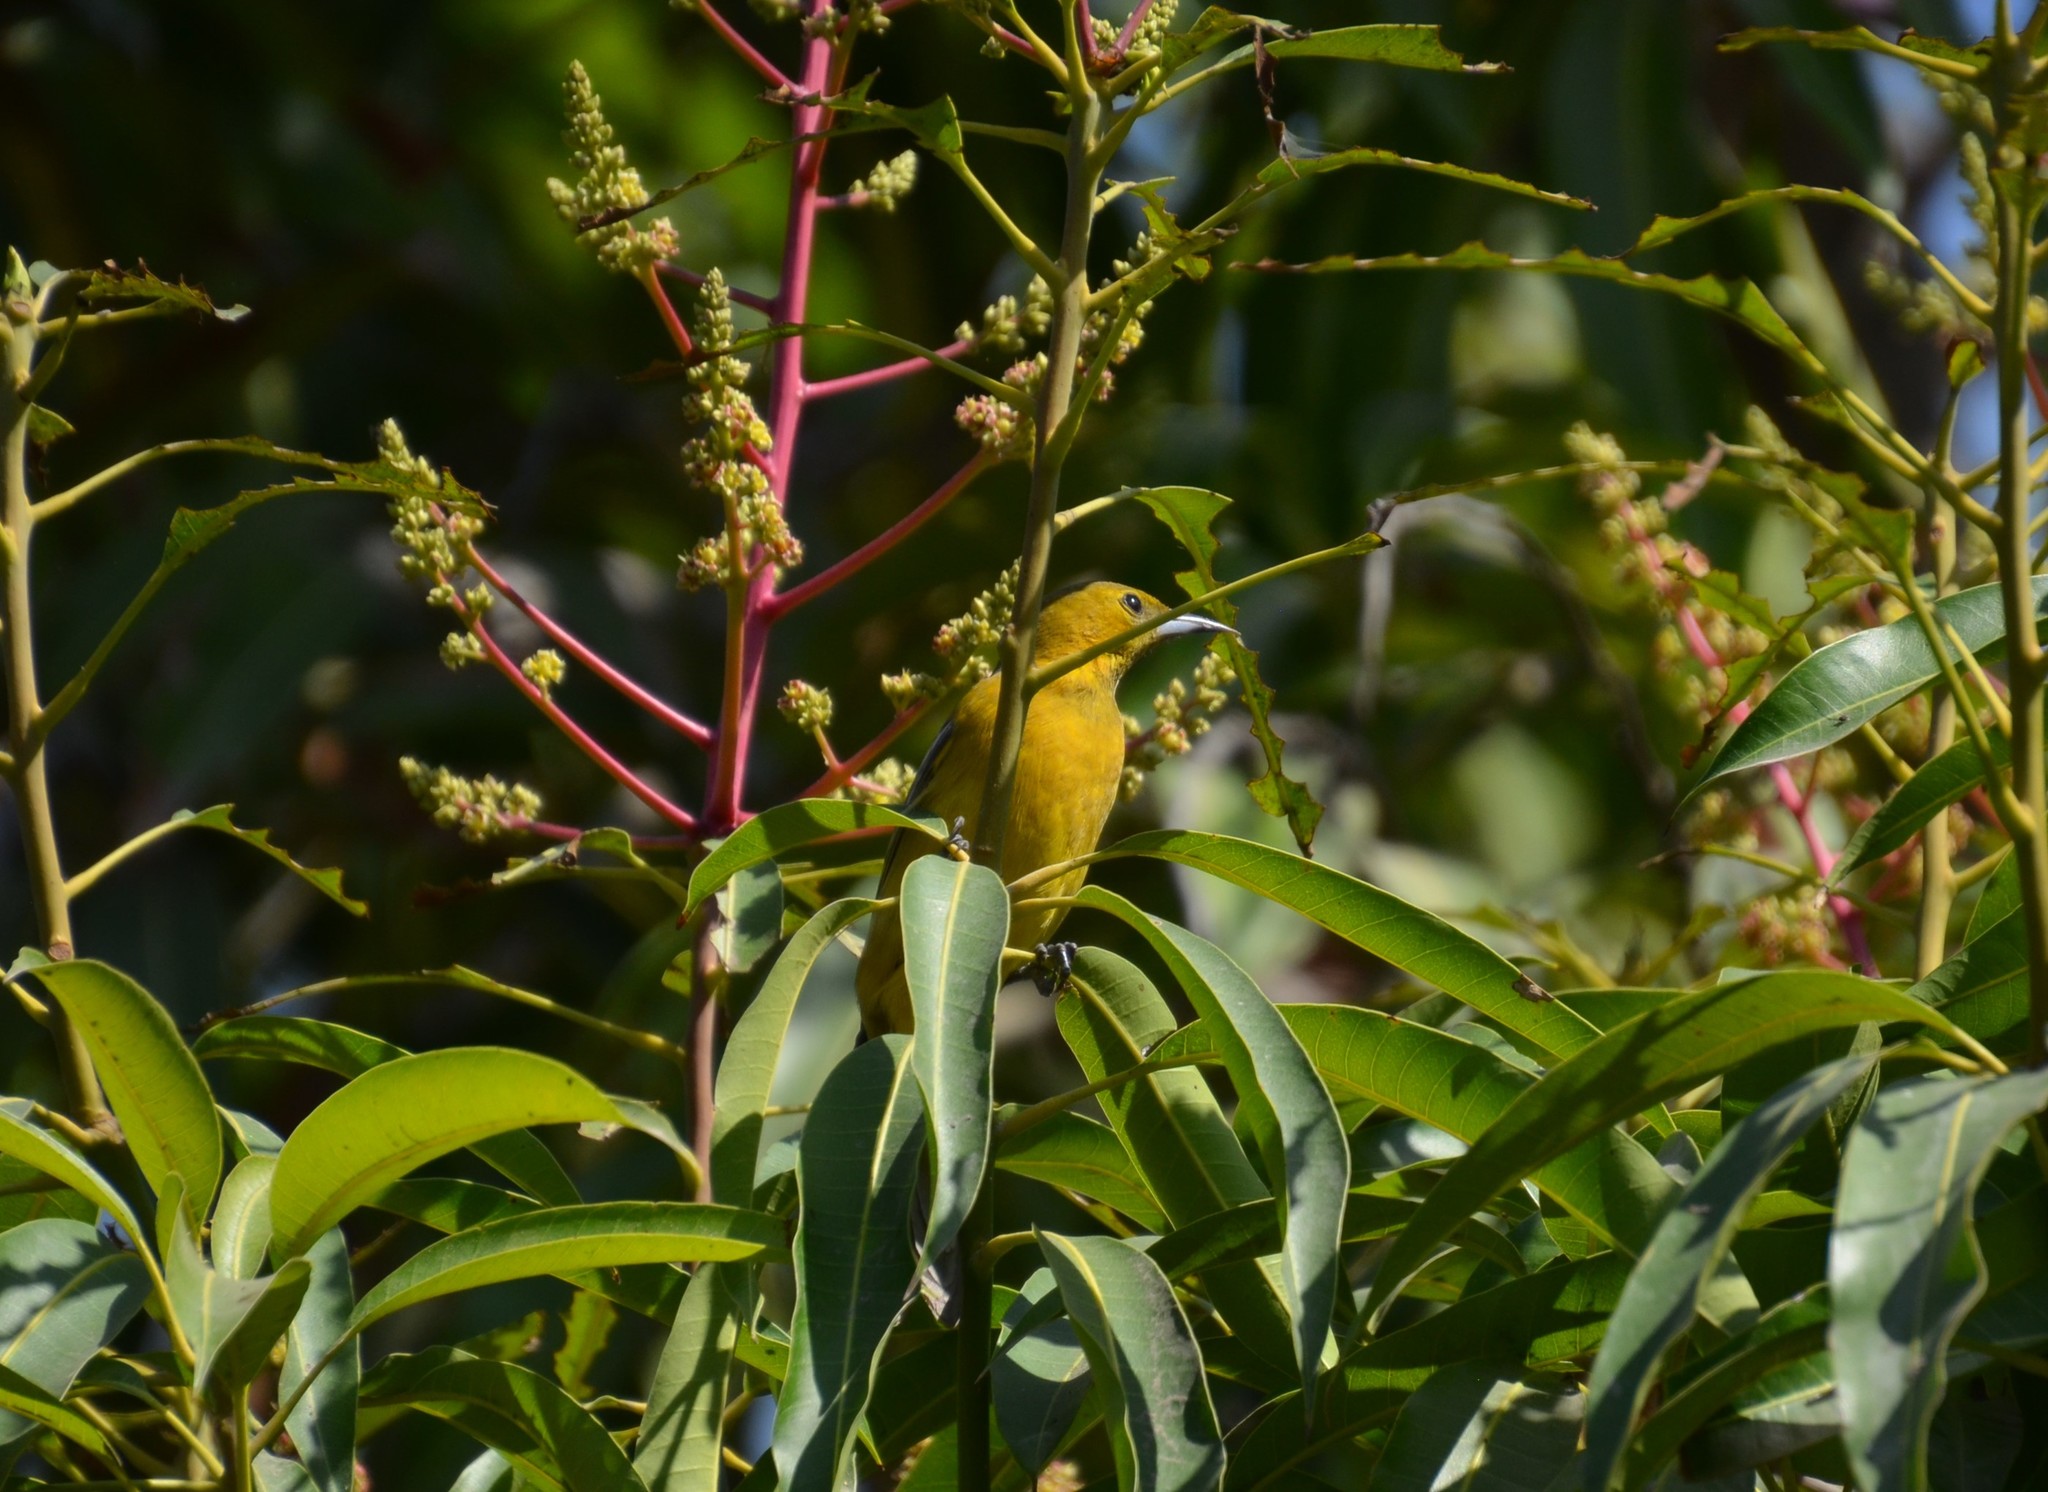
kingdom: Animalia
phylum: Chordata
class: Aves
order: Passeriformes
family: Icteridae
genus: Icterus
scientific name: Icterus cucullatus
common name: Hooded oriole
